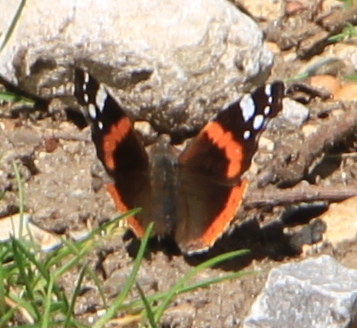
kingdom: Animalia
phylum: Arthropoda
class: Insecta
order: Lepidoptera
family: Nymphalidae
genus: Vanessa
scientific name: Vanessa atalanta
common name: Red admiral
